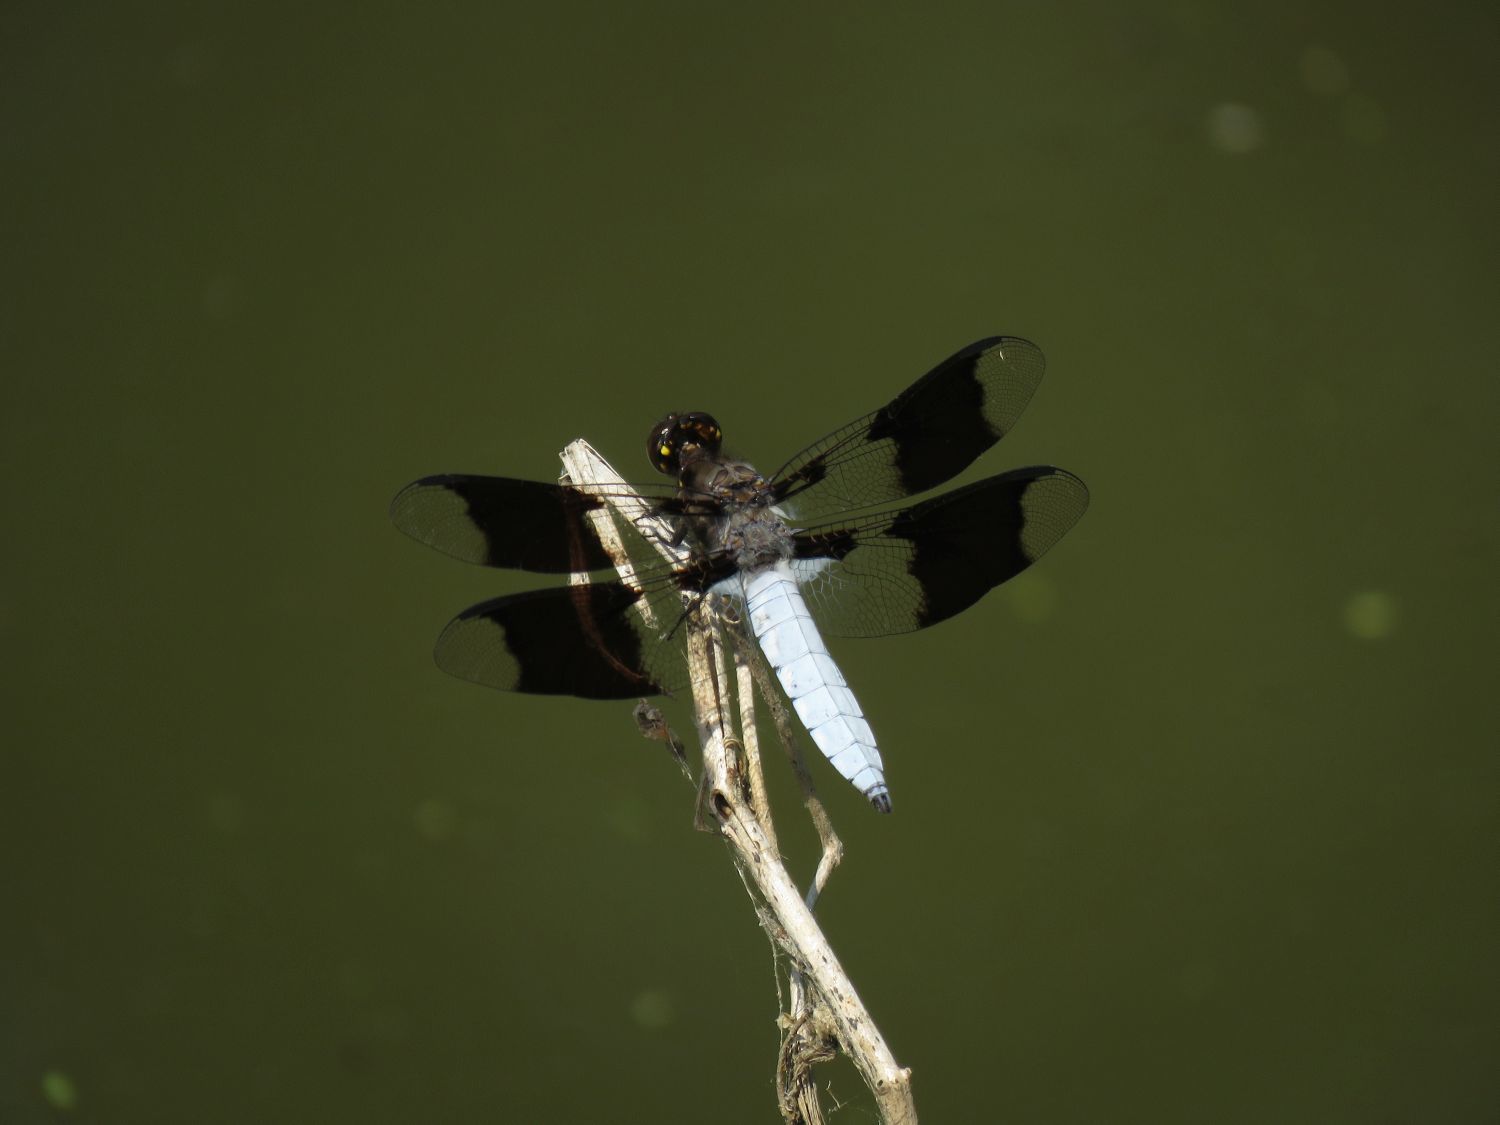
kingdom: Animalia
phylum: Arthropoda
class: Insecta
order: Odonata
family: Libellulidae
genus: Plathemis
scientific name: Plathemis lydia
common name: Common whitetail
